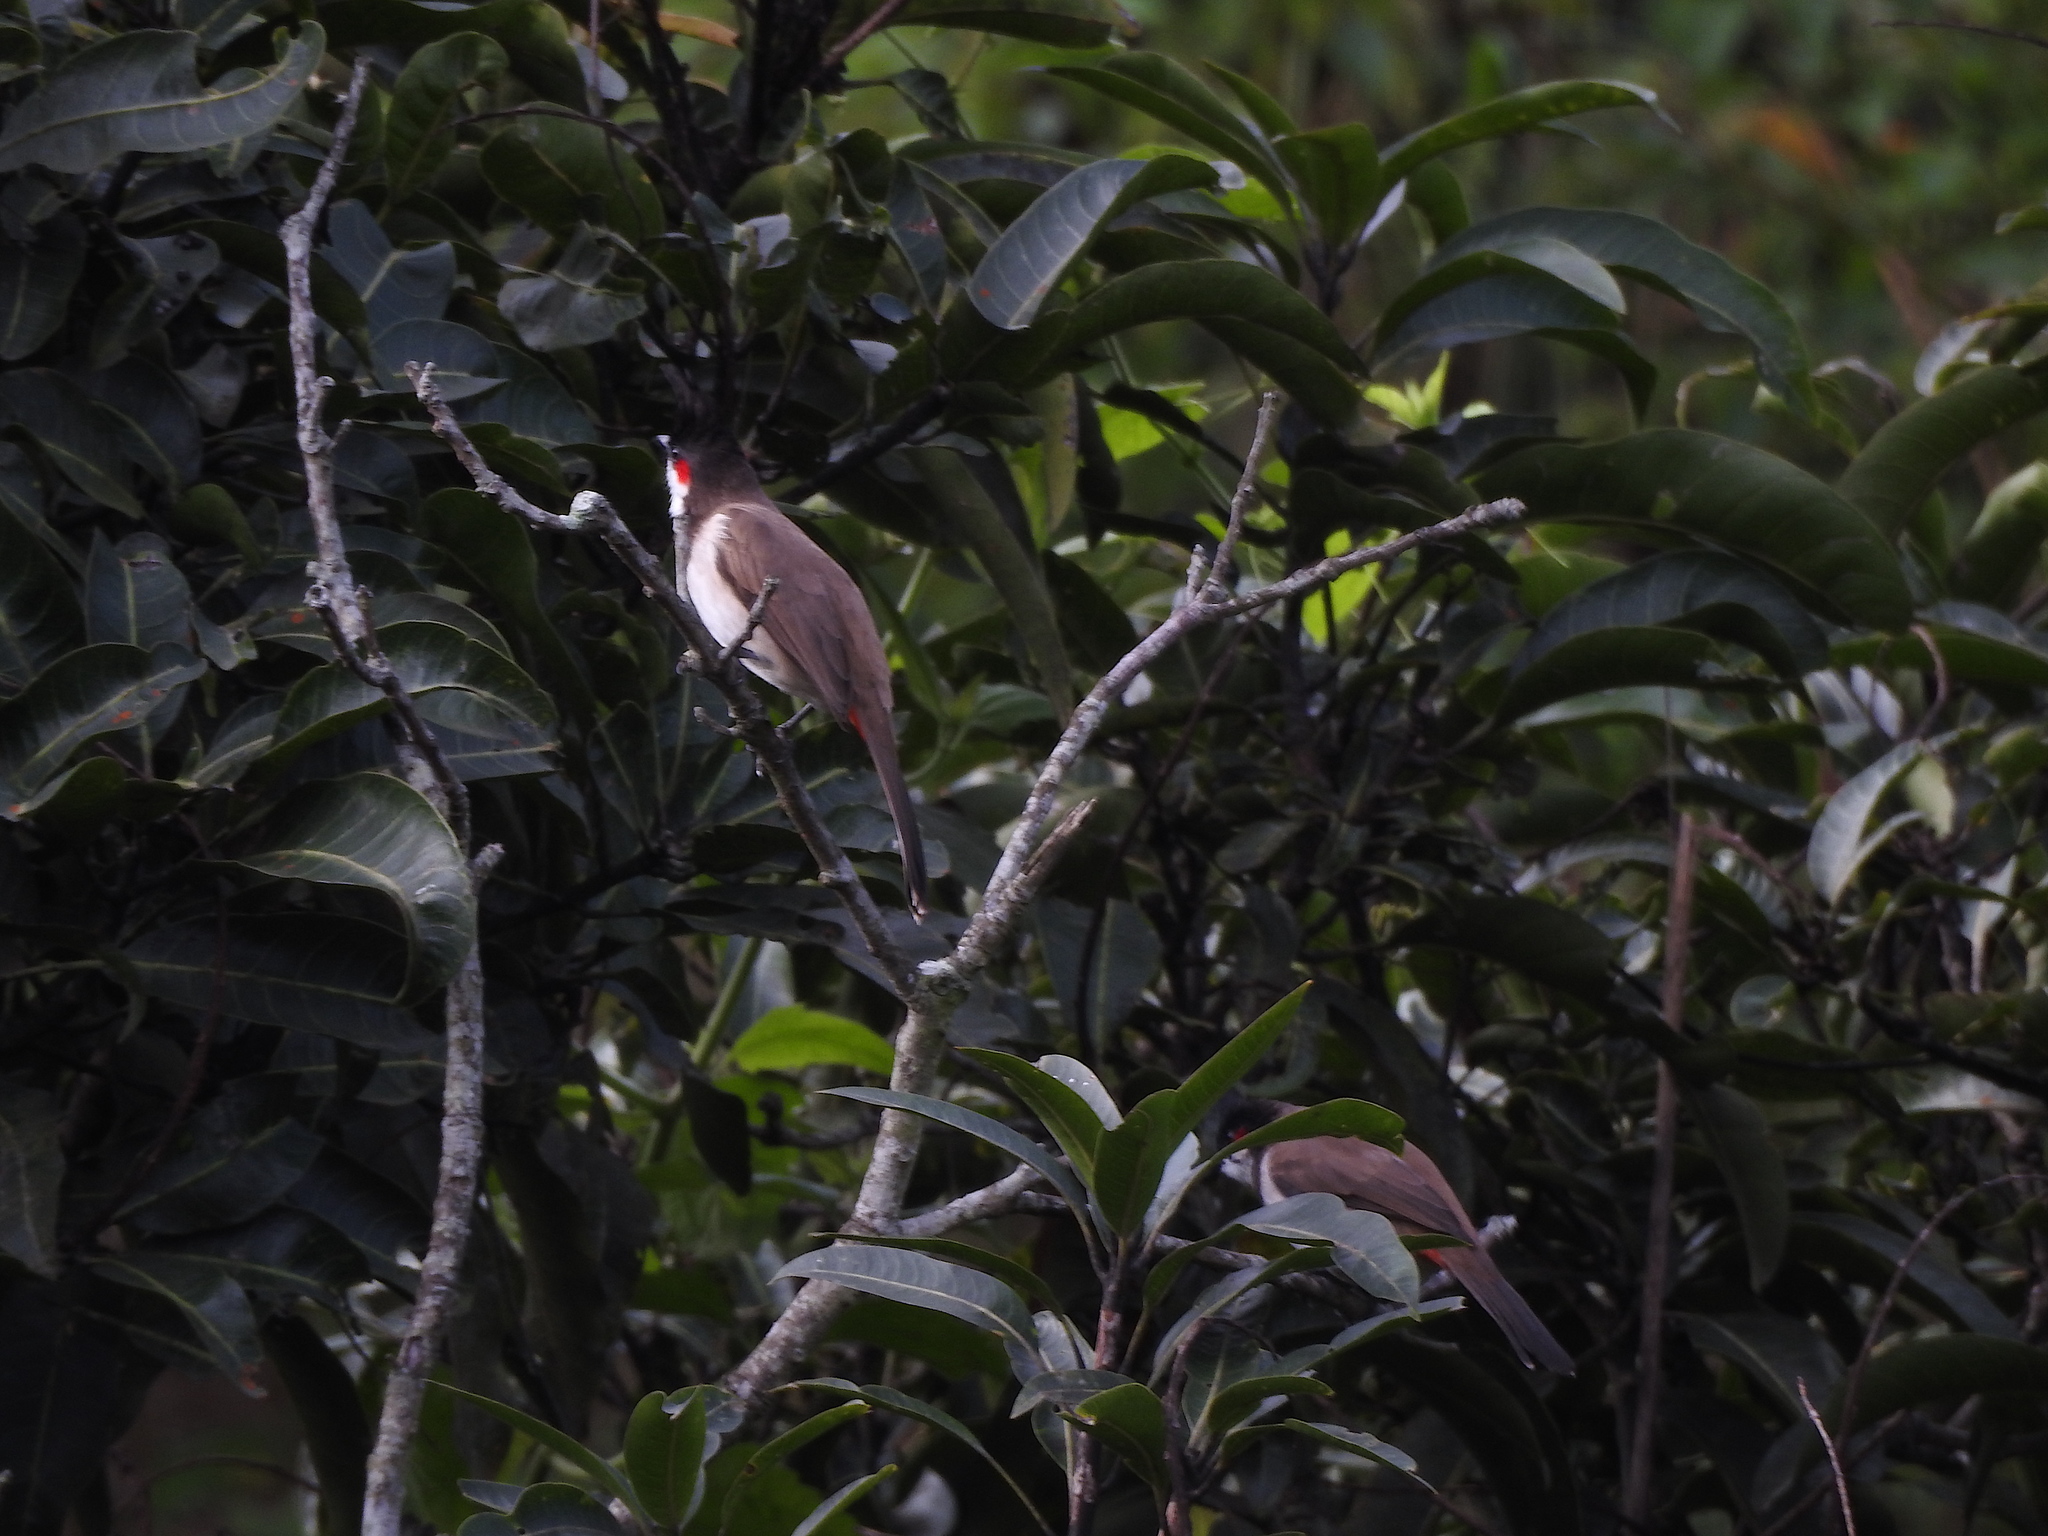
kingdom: Animalia
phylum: Chordata
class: Aves
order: Passeriformes
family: Pycnonotidae
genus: Pycnonotus
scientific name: Pycnonotus jocosus
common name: Red-whiskered bulbul
